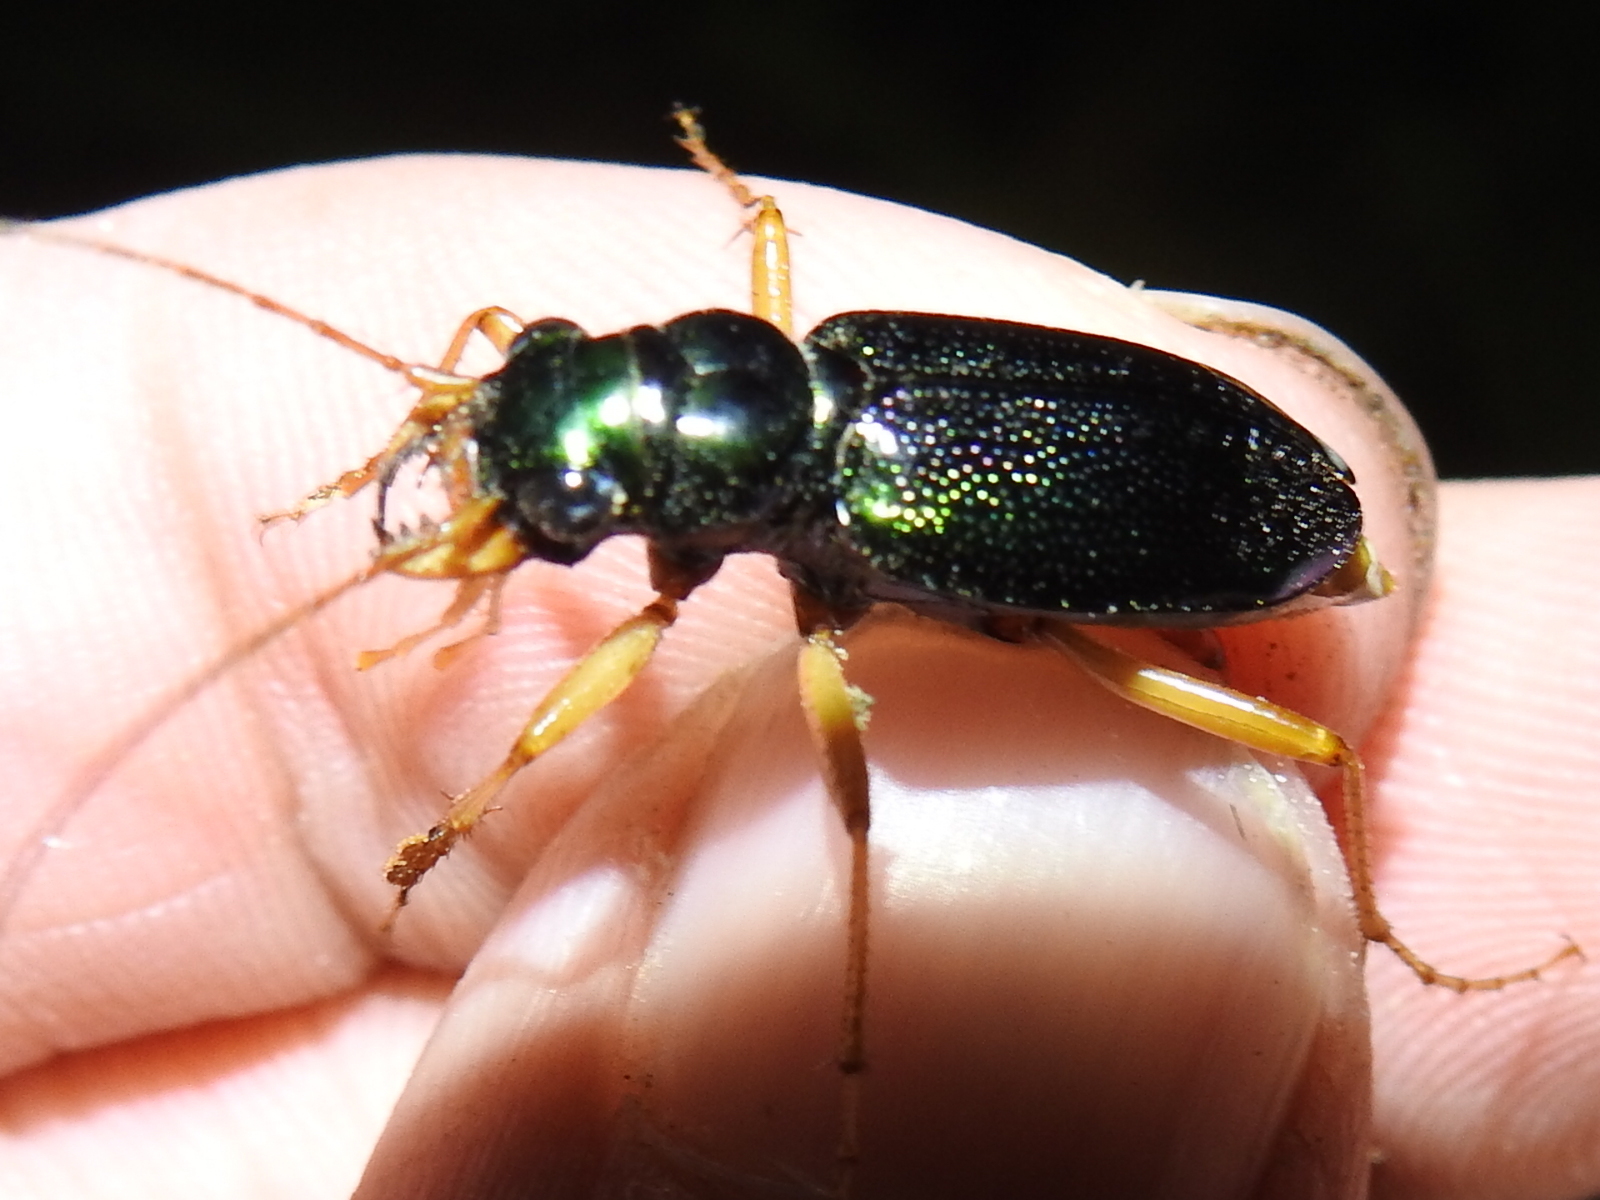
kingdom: Animalia
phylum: Arthropoda
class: Insecta
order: Coleoptera
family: Carabidae
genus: Tetracha
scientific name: Tetracha virginica
